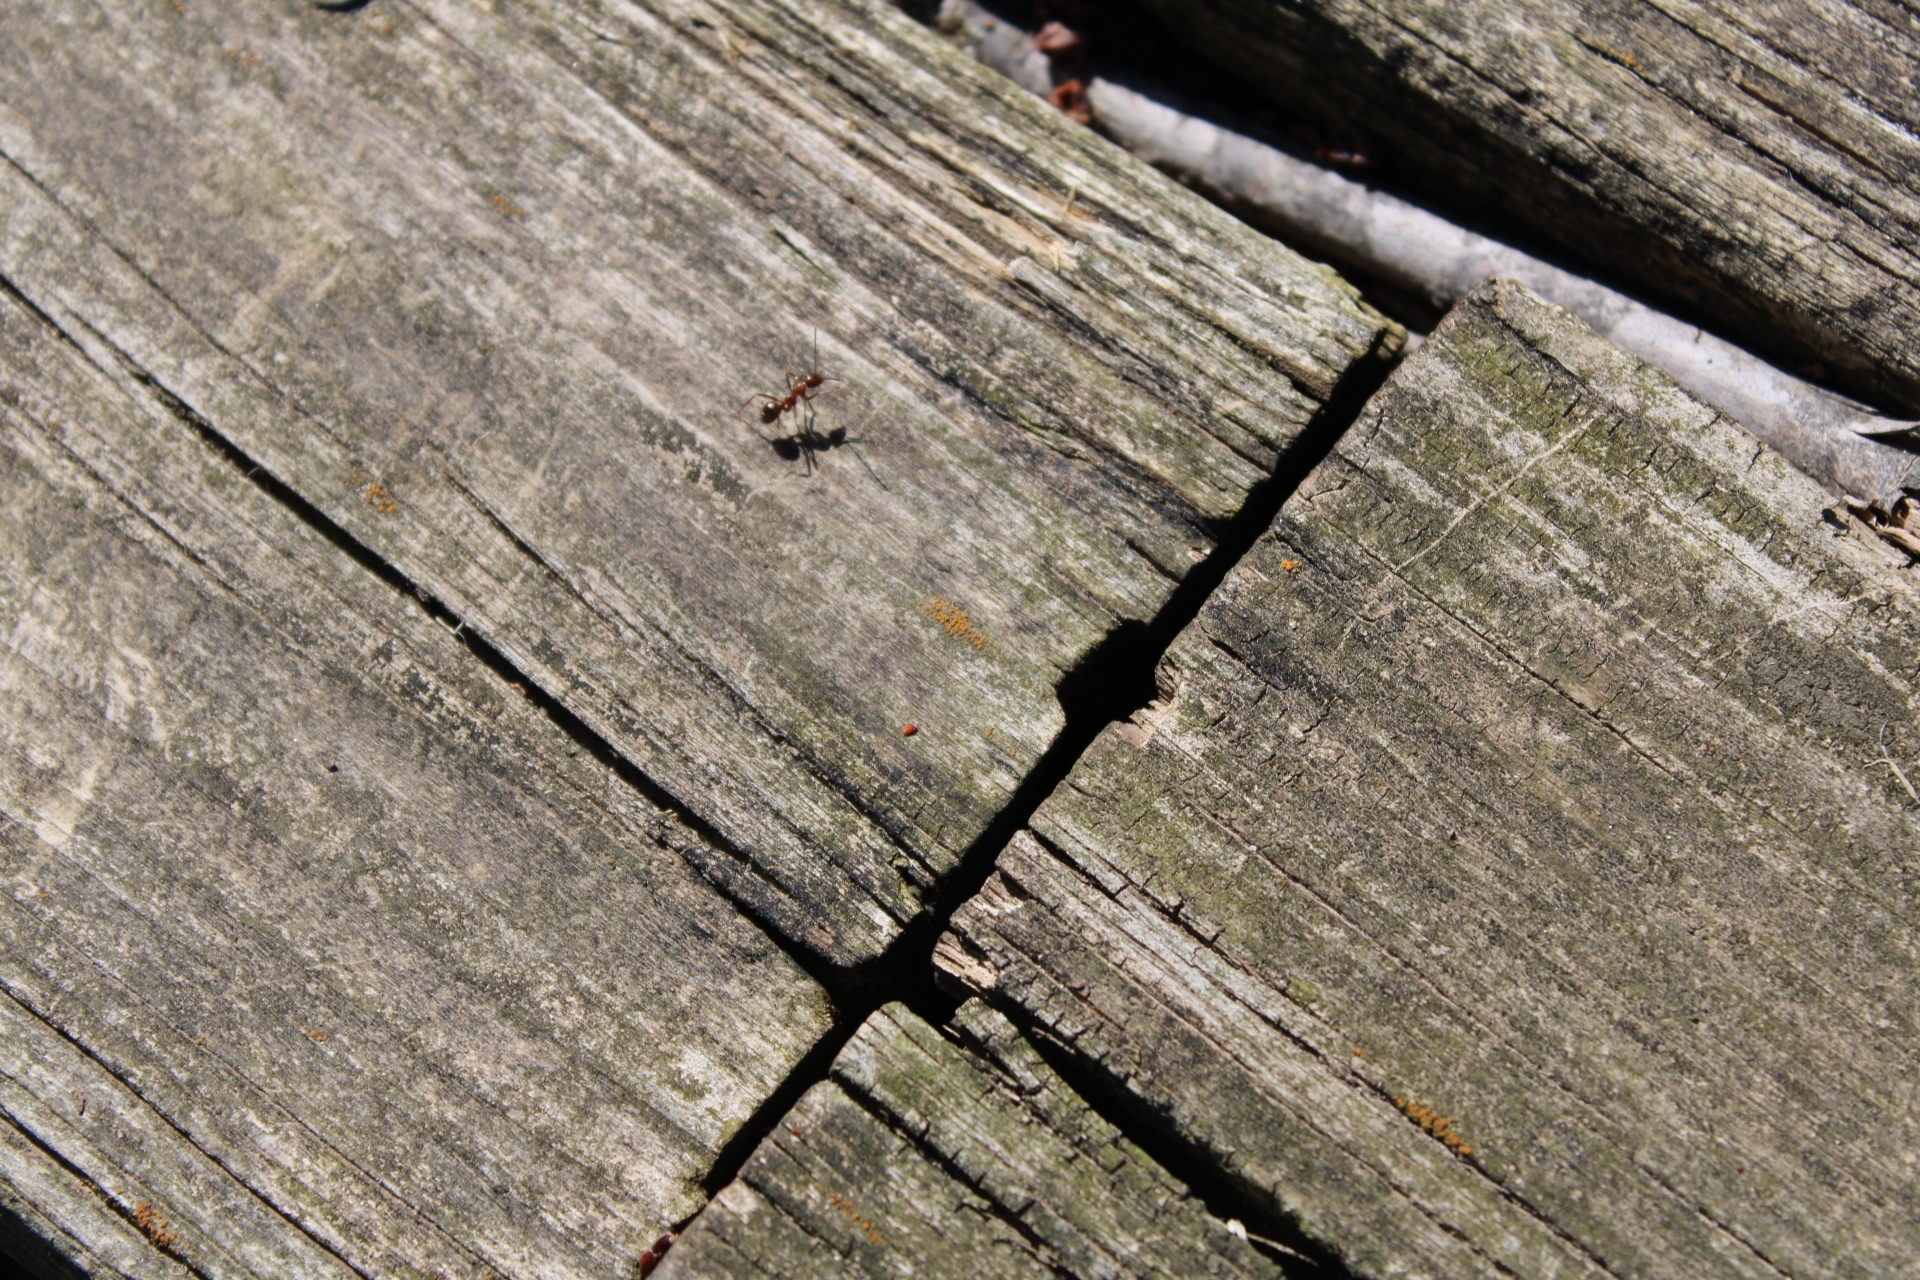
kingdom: Animalia
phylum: Arthropoda
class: Insecta
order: Hymenoptera
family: Formicidae
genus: Formica
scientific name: Formica
